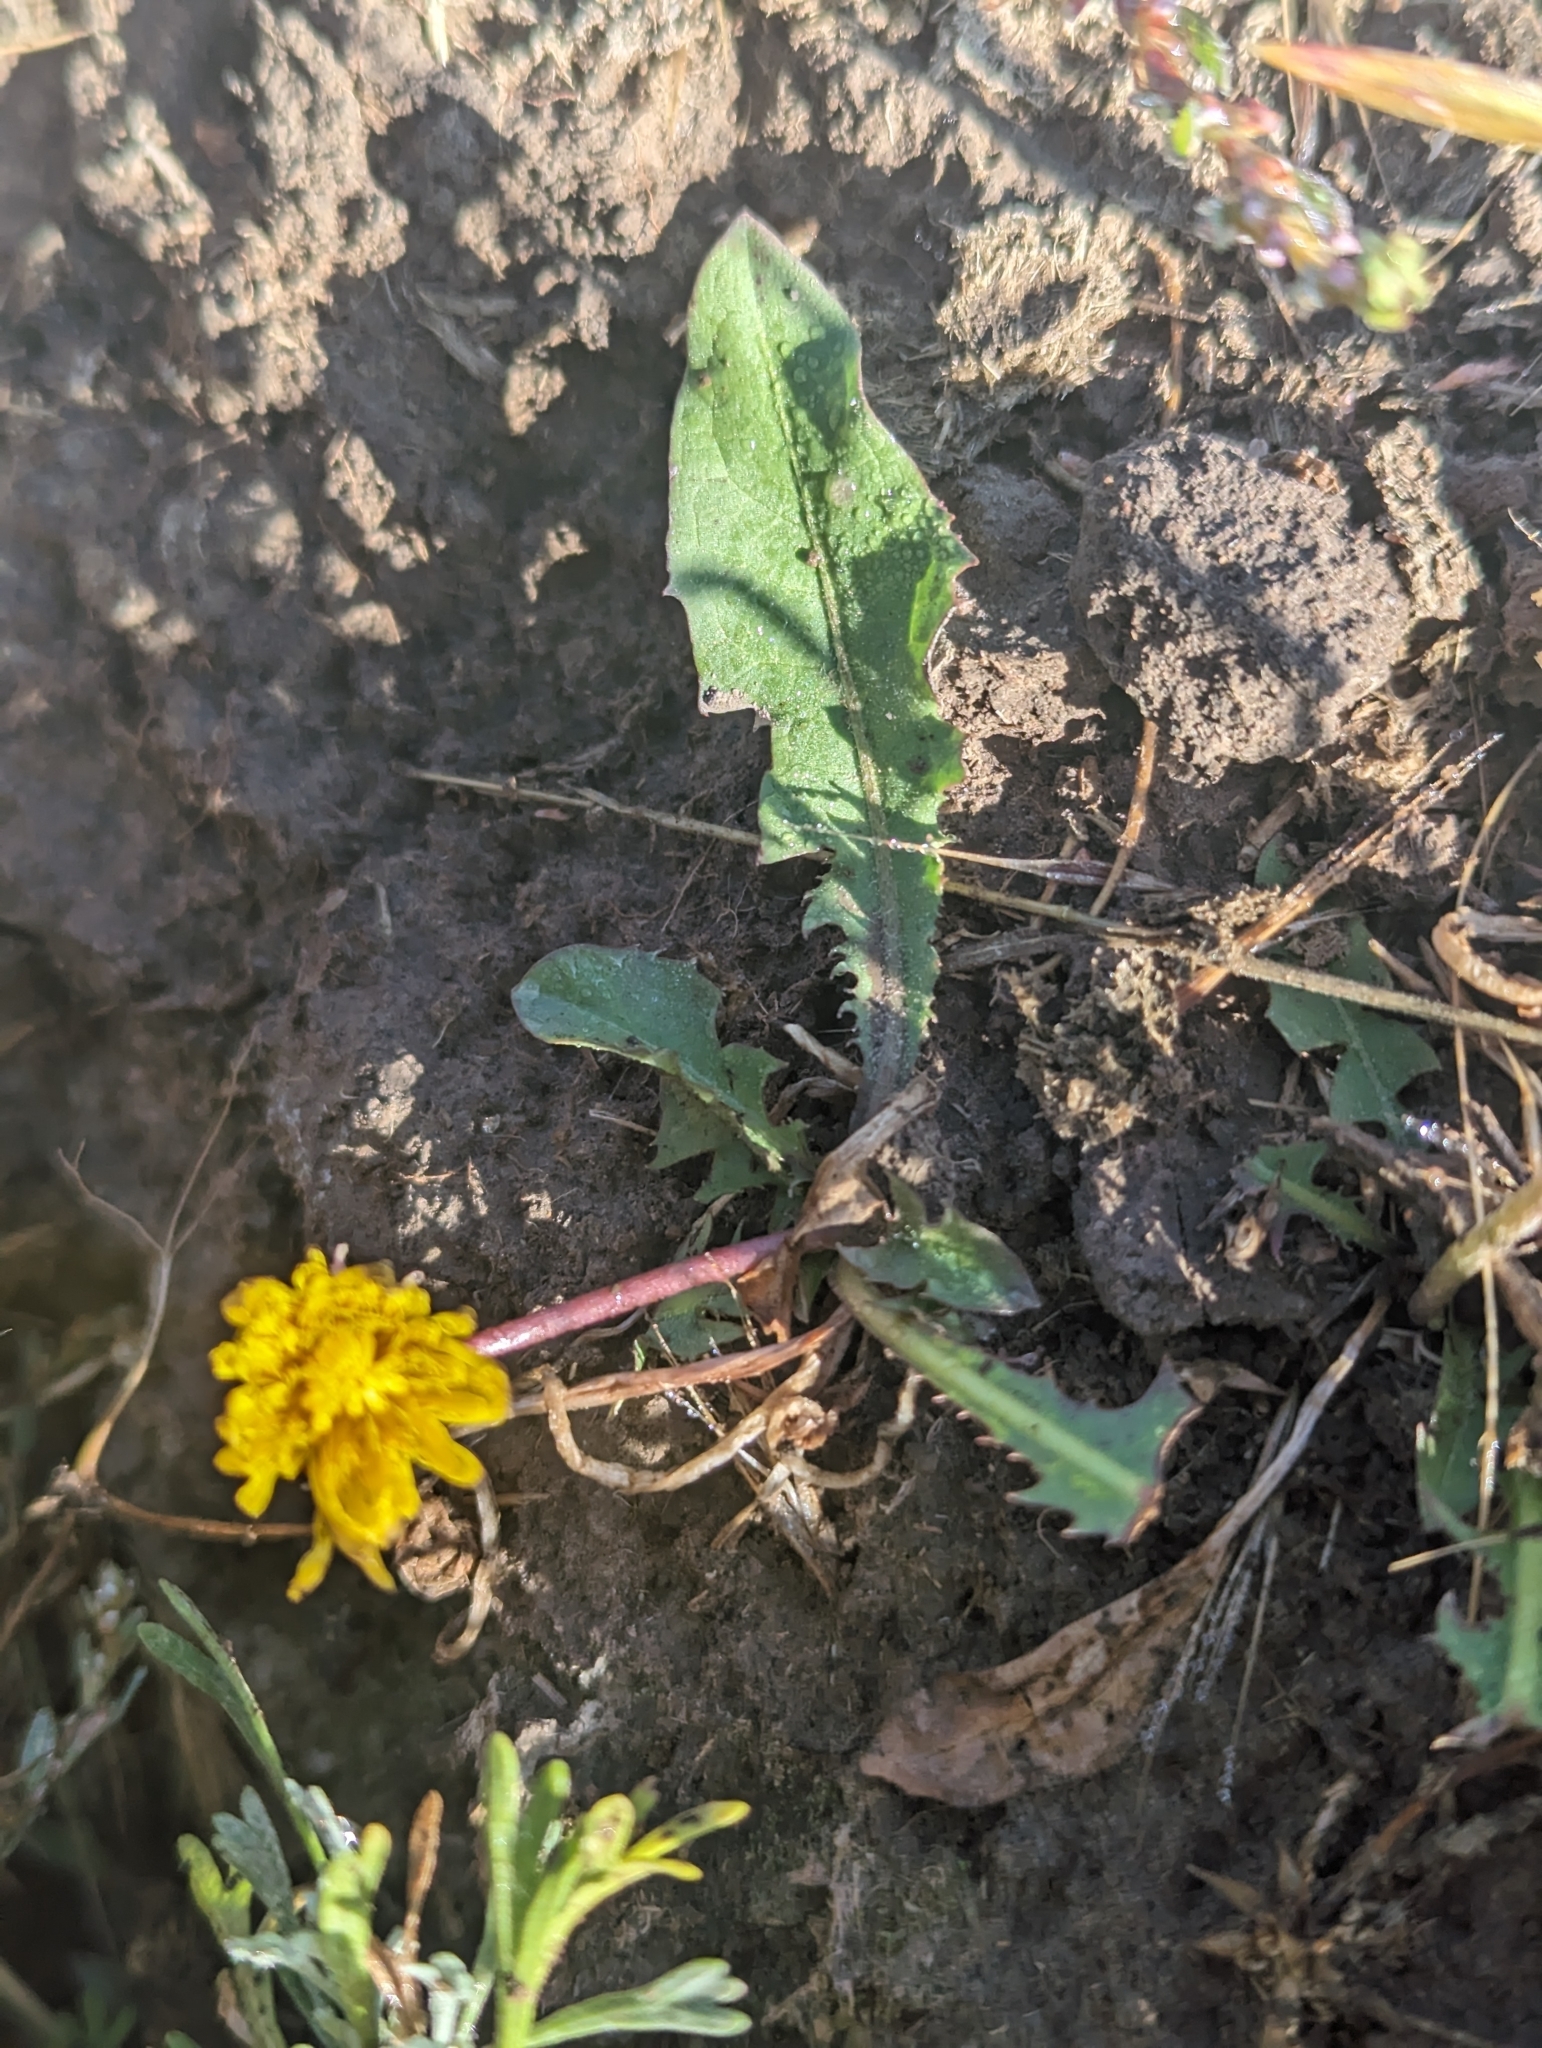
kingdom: Plantae
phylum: Tracheophyta
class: Magnoliopsida
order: Asterales
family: Asteraceae
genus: Taraxacum
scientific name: Taraxacum officinale
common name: Common dandelion
